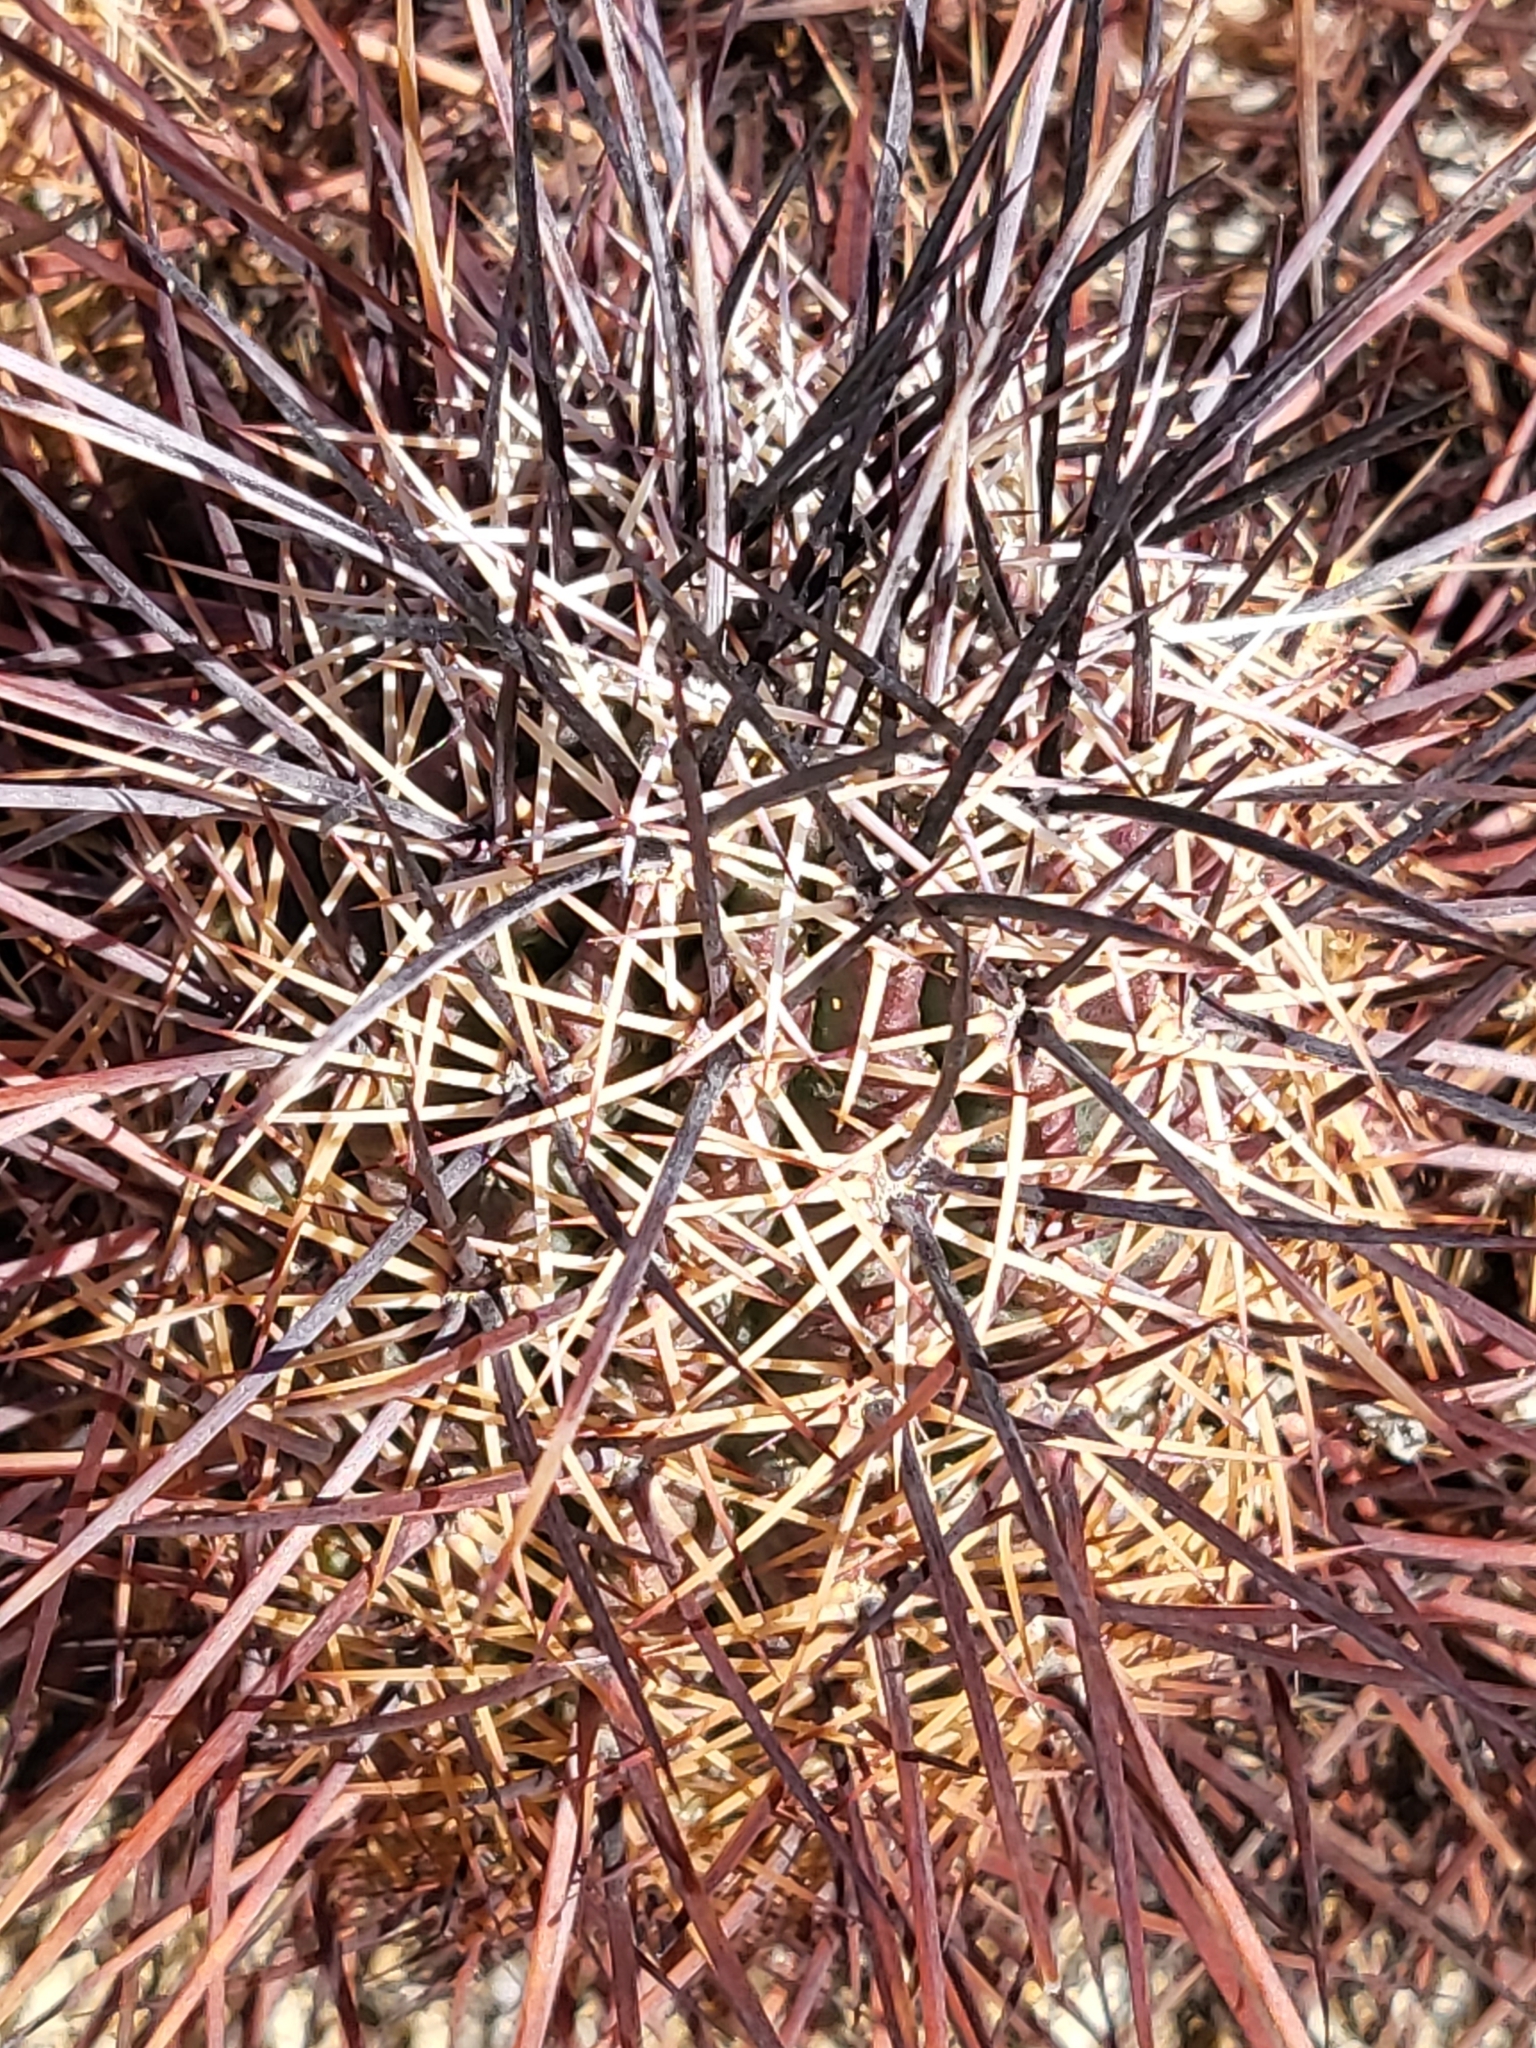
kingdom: Plantae
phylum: Tracheophyta
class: Magnoliopsida
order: Caryophyllales
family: Cactaceae
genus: Echinocereus
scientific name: Echinocereus engelmannii
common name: Engelmann's hedgehog cactus
